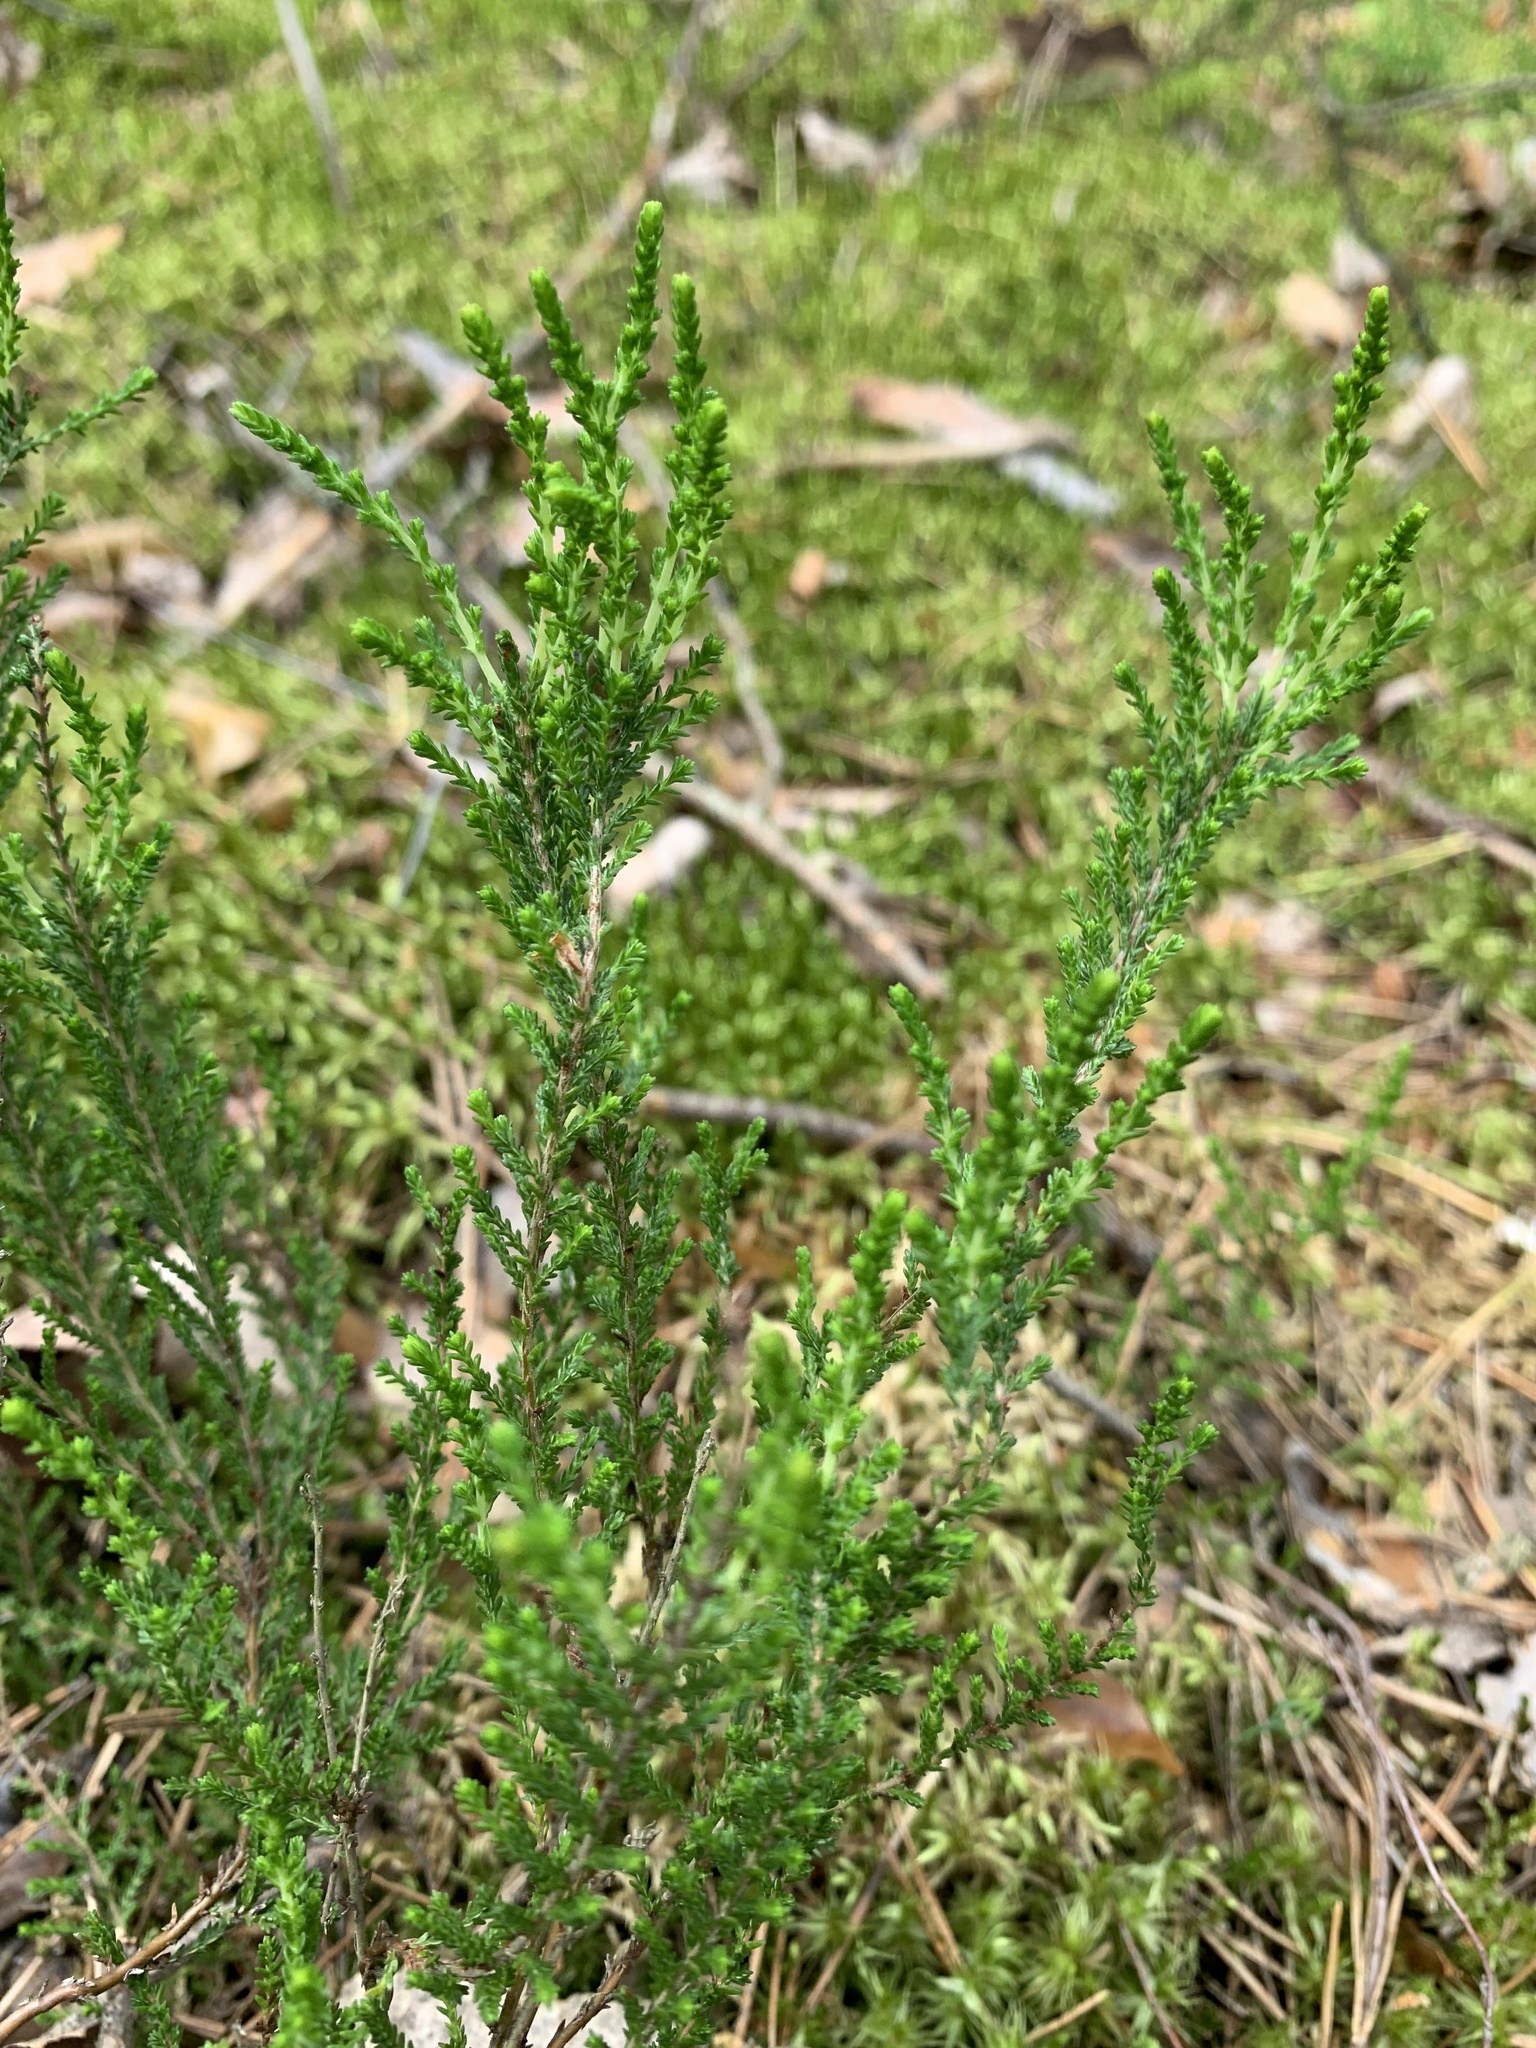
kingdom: Plantae
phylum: Tracheophyta
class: Magnoliopsida
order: Ericales
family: Ericaceae
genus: Calluna
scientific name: Calluna vulgaris
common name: Heather
